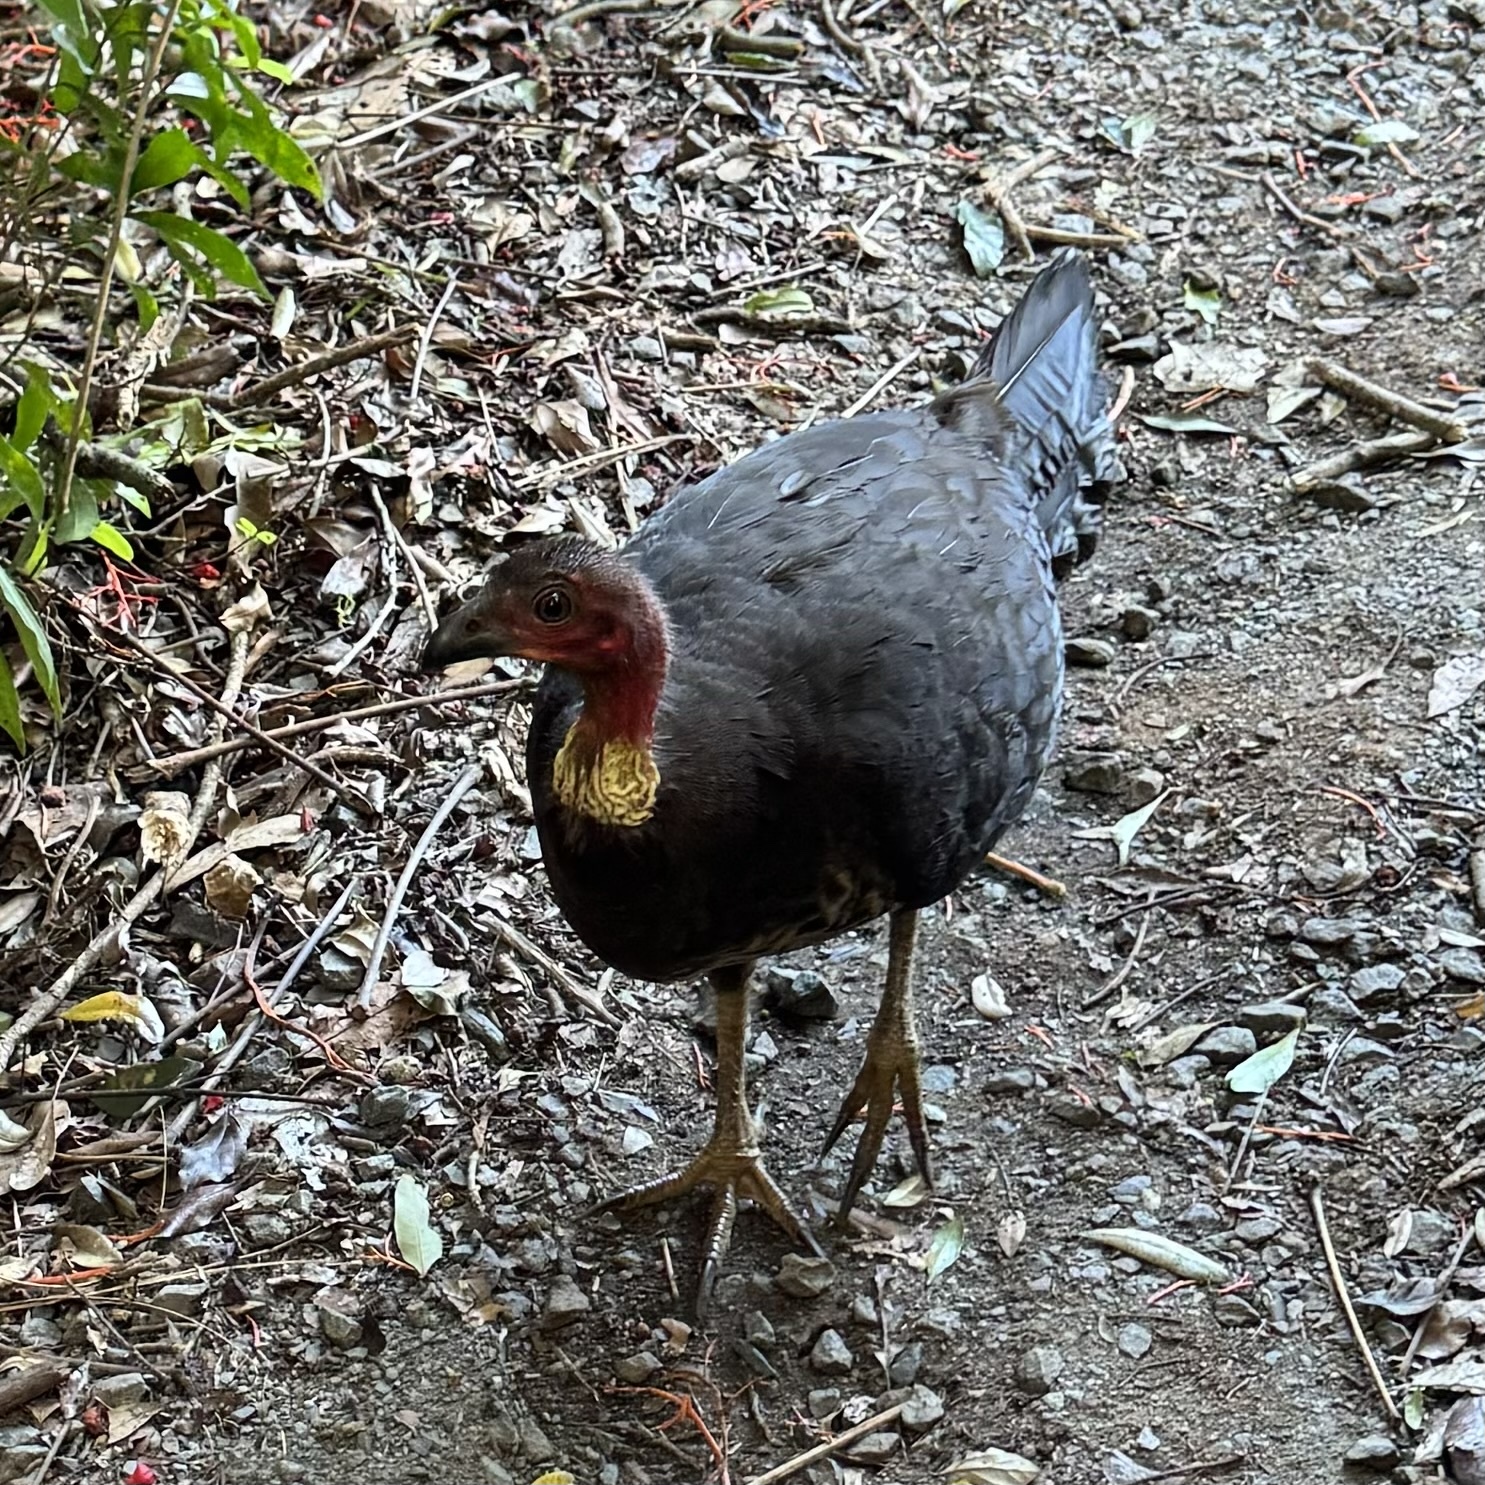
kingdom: Animalia
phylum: Chordata
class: Aves
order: Galliformes
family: Megapodiidae
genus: Alectura
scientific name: Alectura lathami
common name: Australian brushturkey
